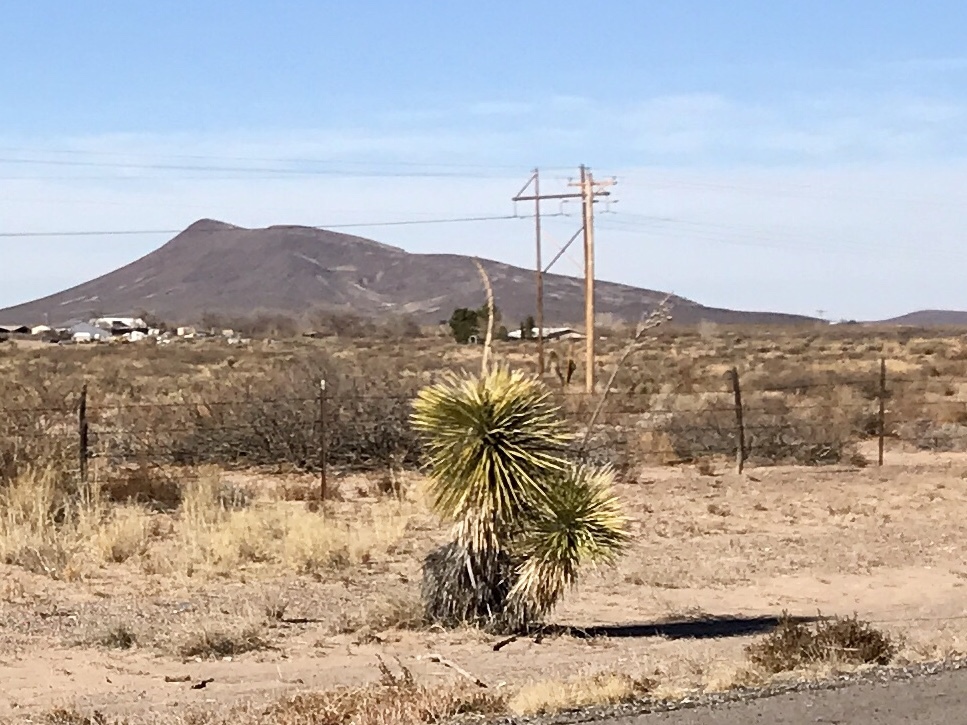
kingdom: Plantae
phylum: Tracheophyta
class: Liliopsida
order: Asparagales
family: Asparagaceae
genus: Yucca
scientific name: Yucca elata
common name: Palmella
